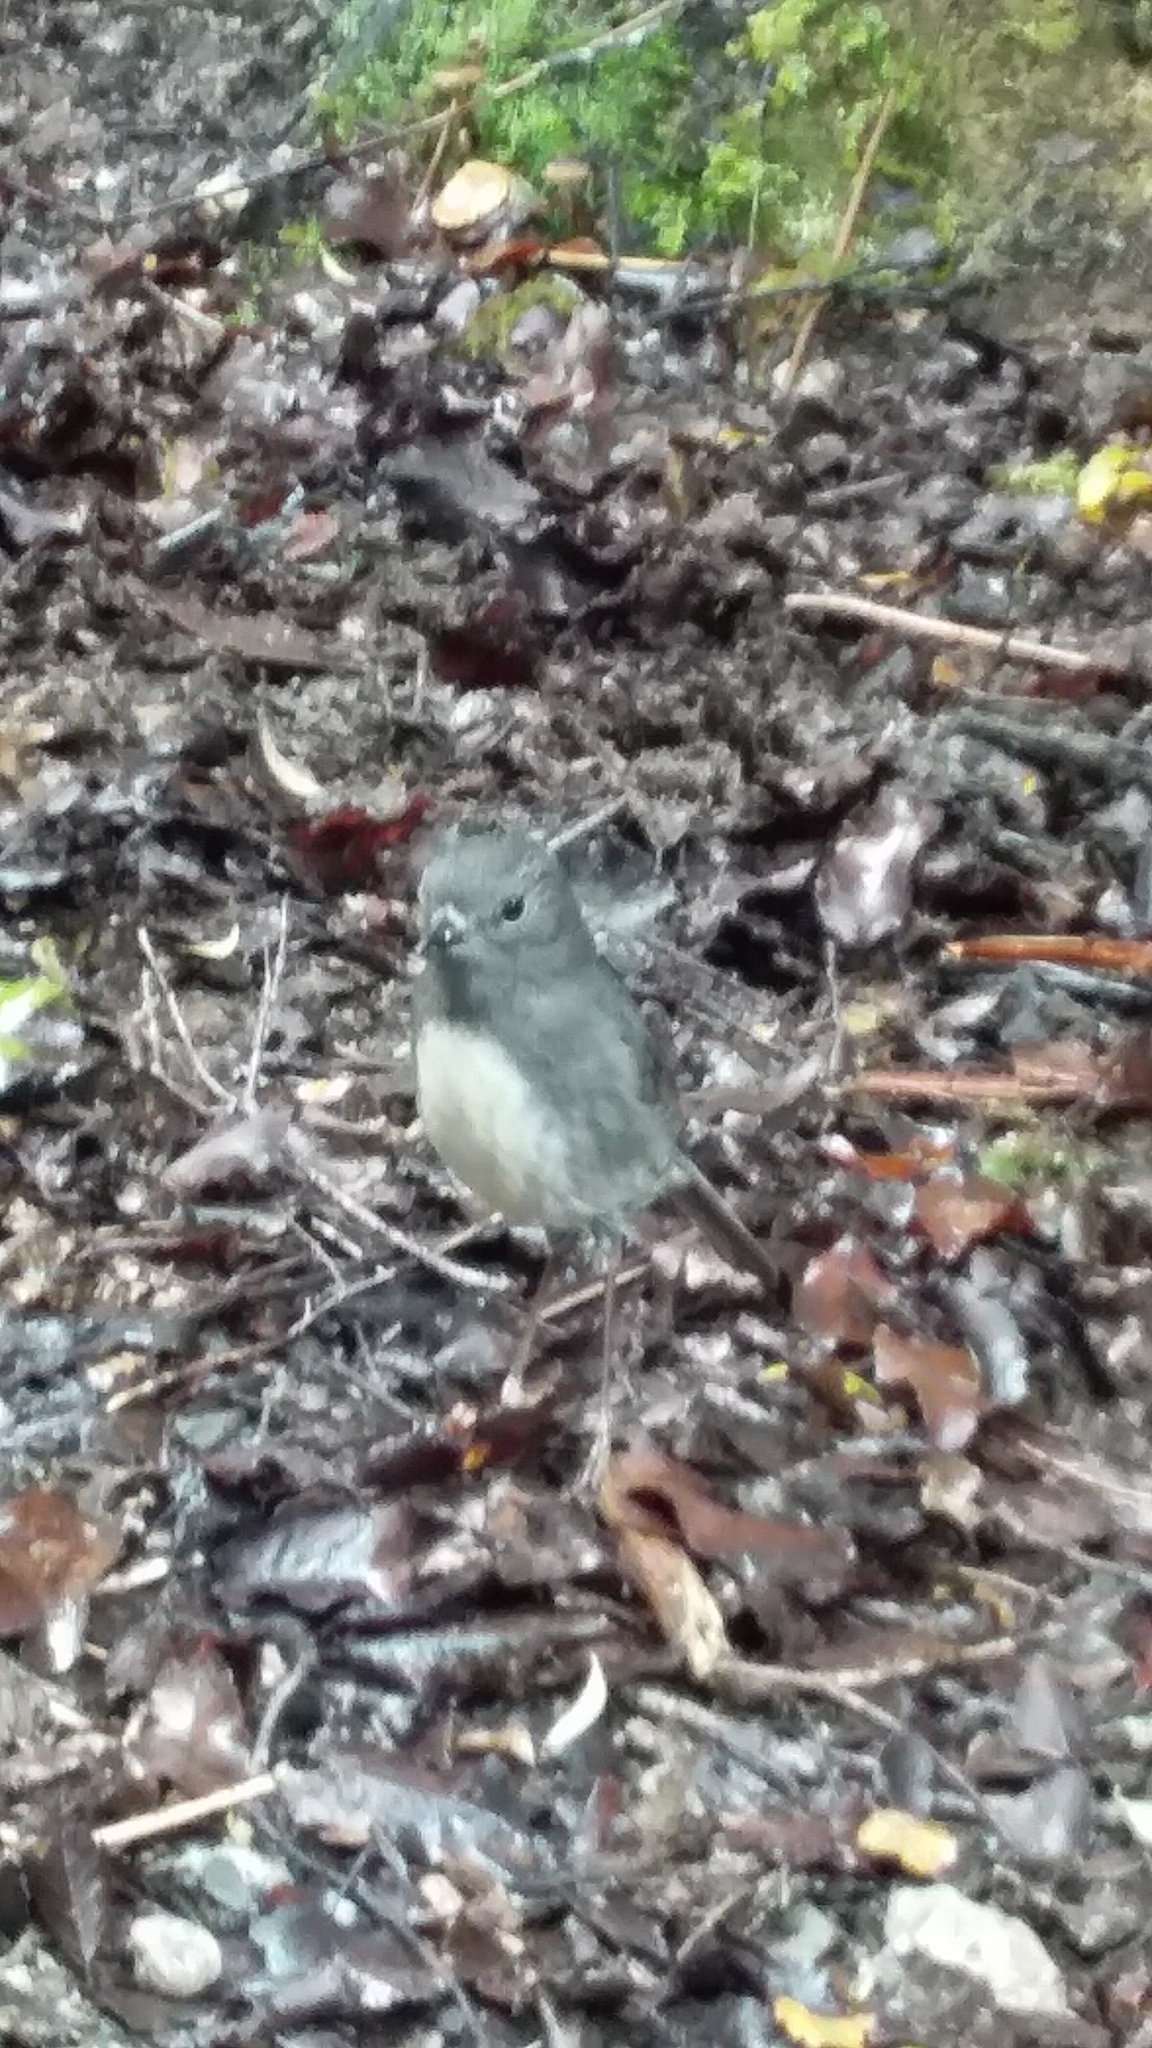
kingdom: Animalia
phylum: Chordata
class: Aves
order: Passeriformes
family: Petroicidae
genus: Petroica
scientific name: Petroica australis
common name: New zealand robin
